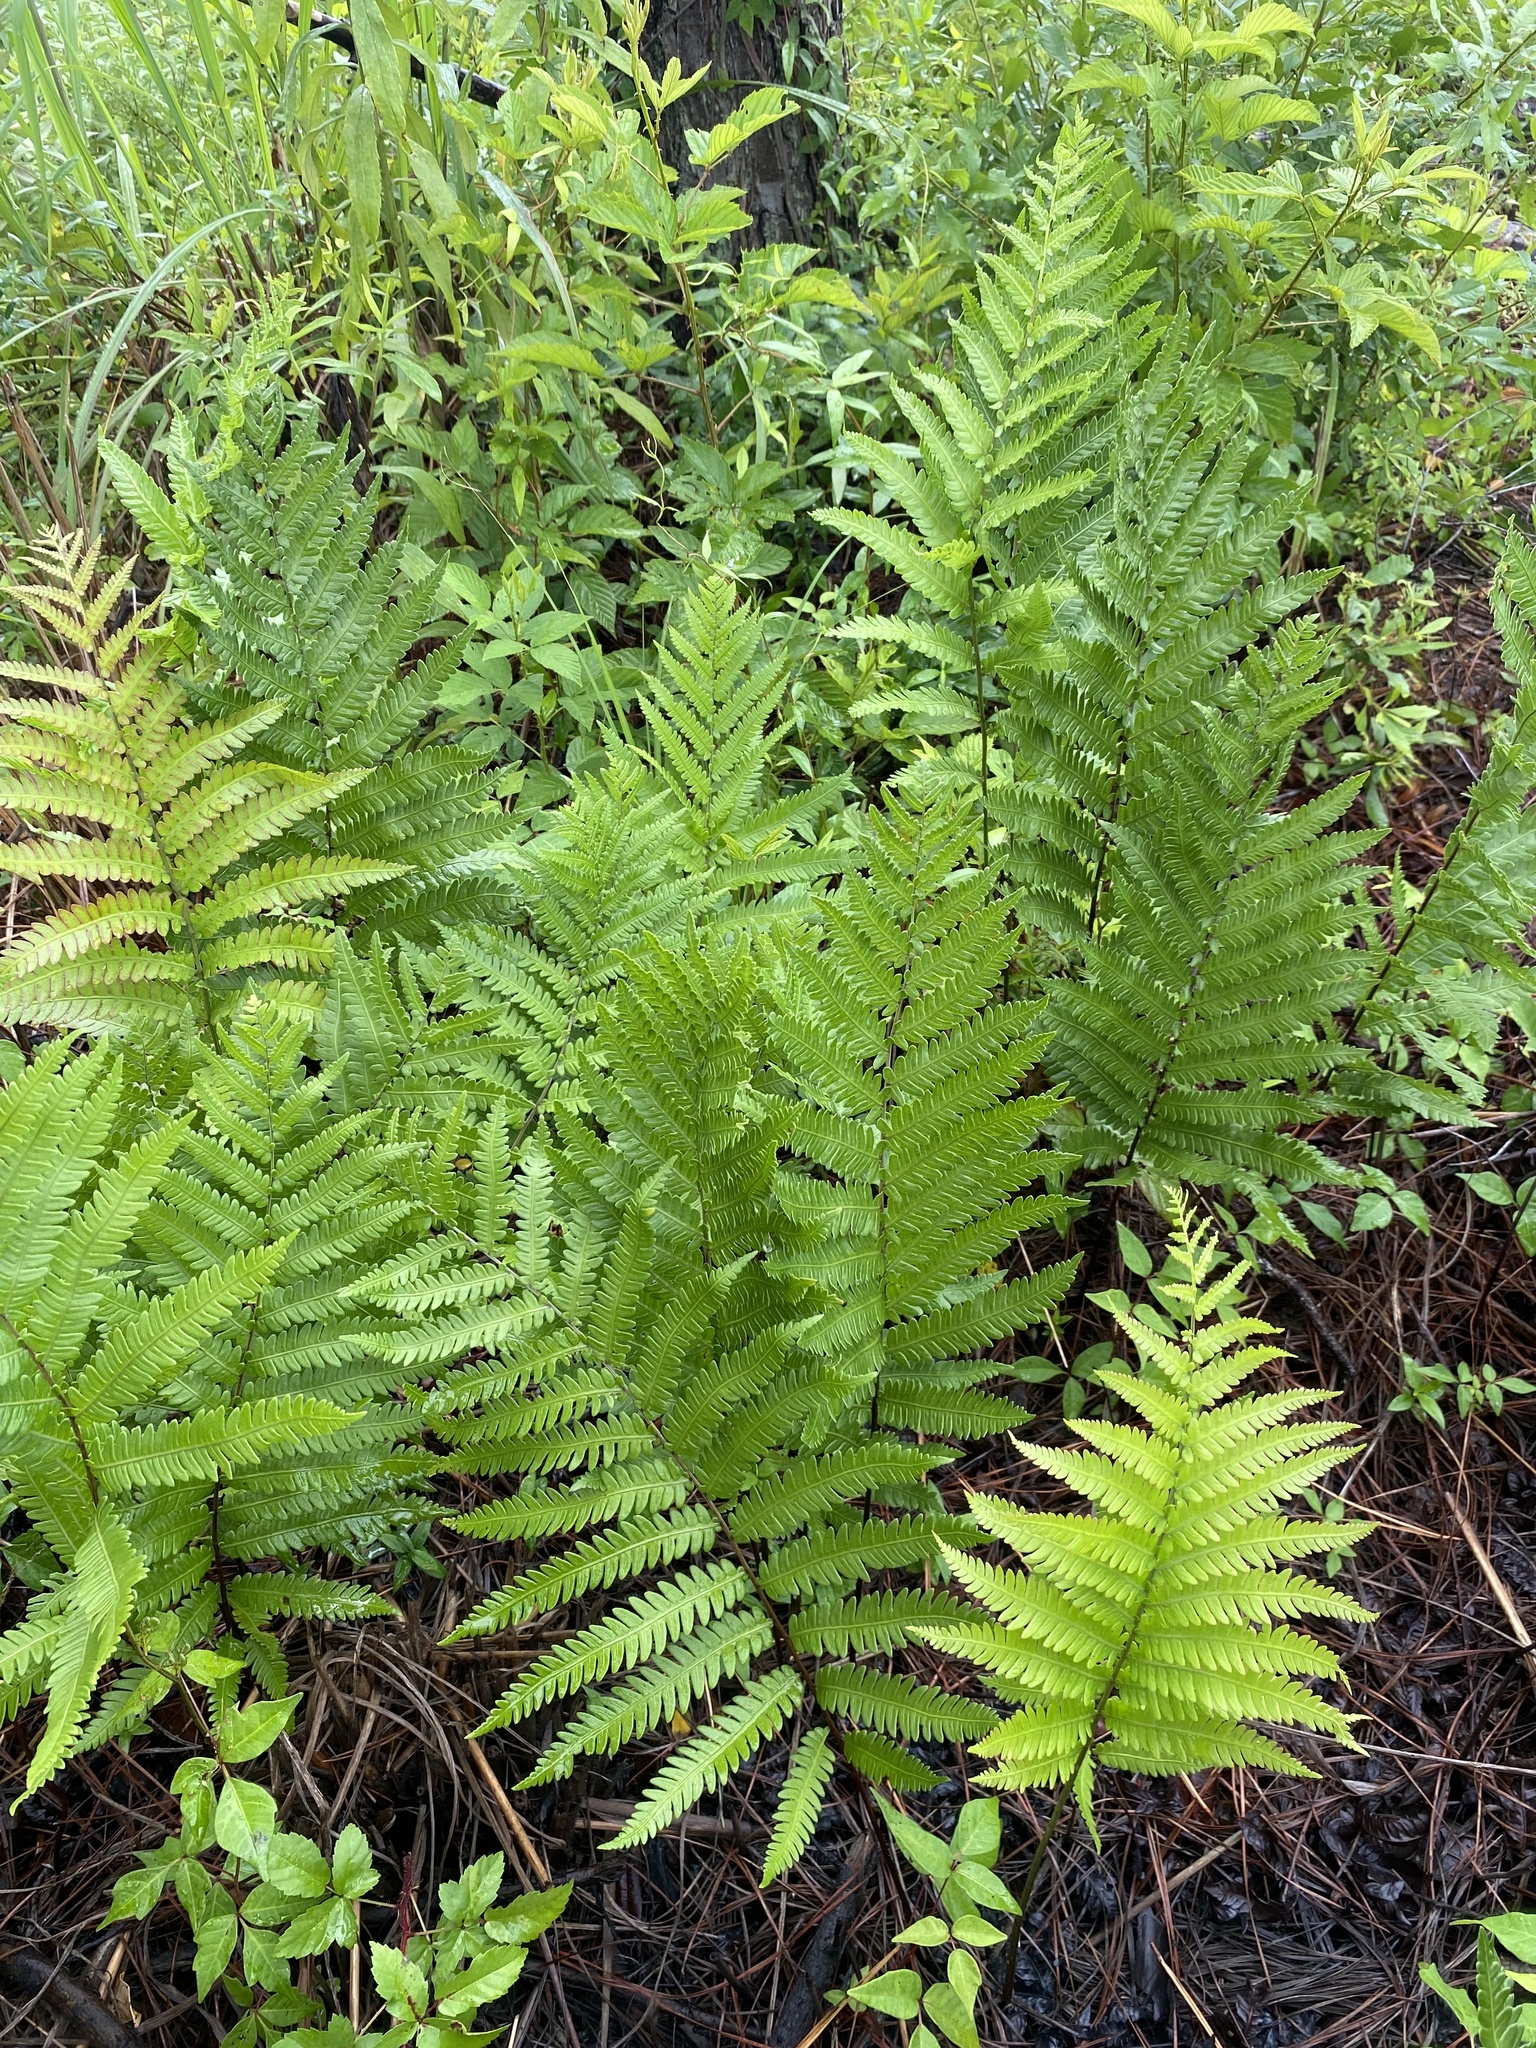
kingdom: Plantae
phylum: Tracheophyta
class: Polypodiopsida
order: Polypodiales
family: Blechnaceae
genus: Anchistea
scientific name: Anchistea virginica
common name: Virginia chain fern
